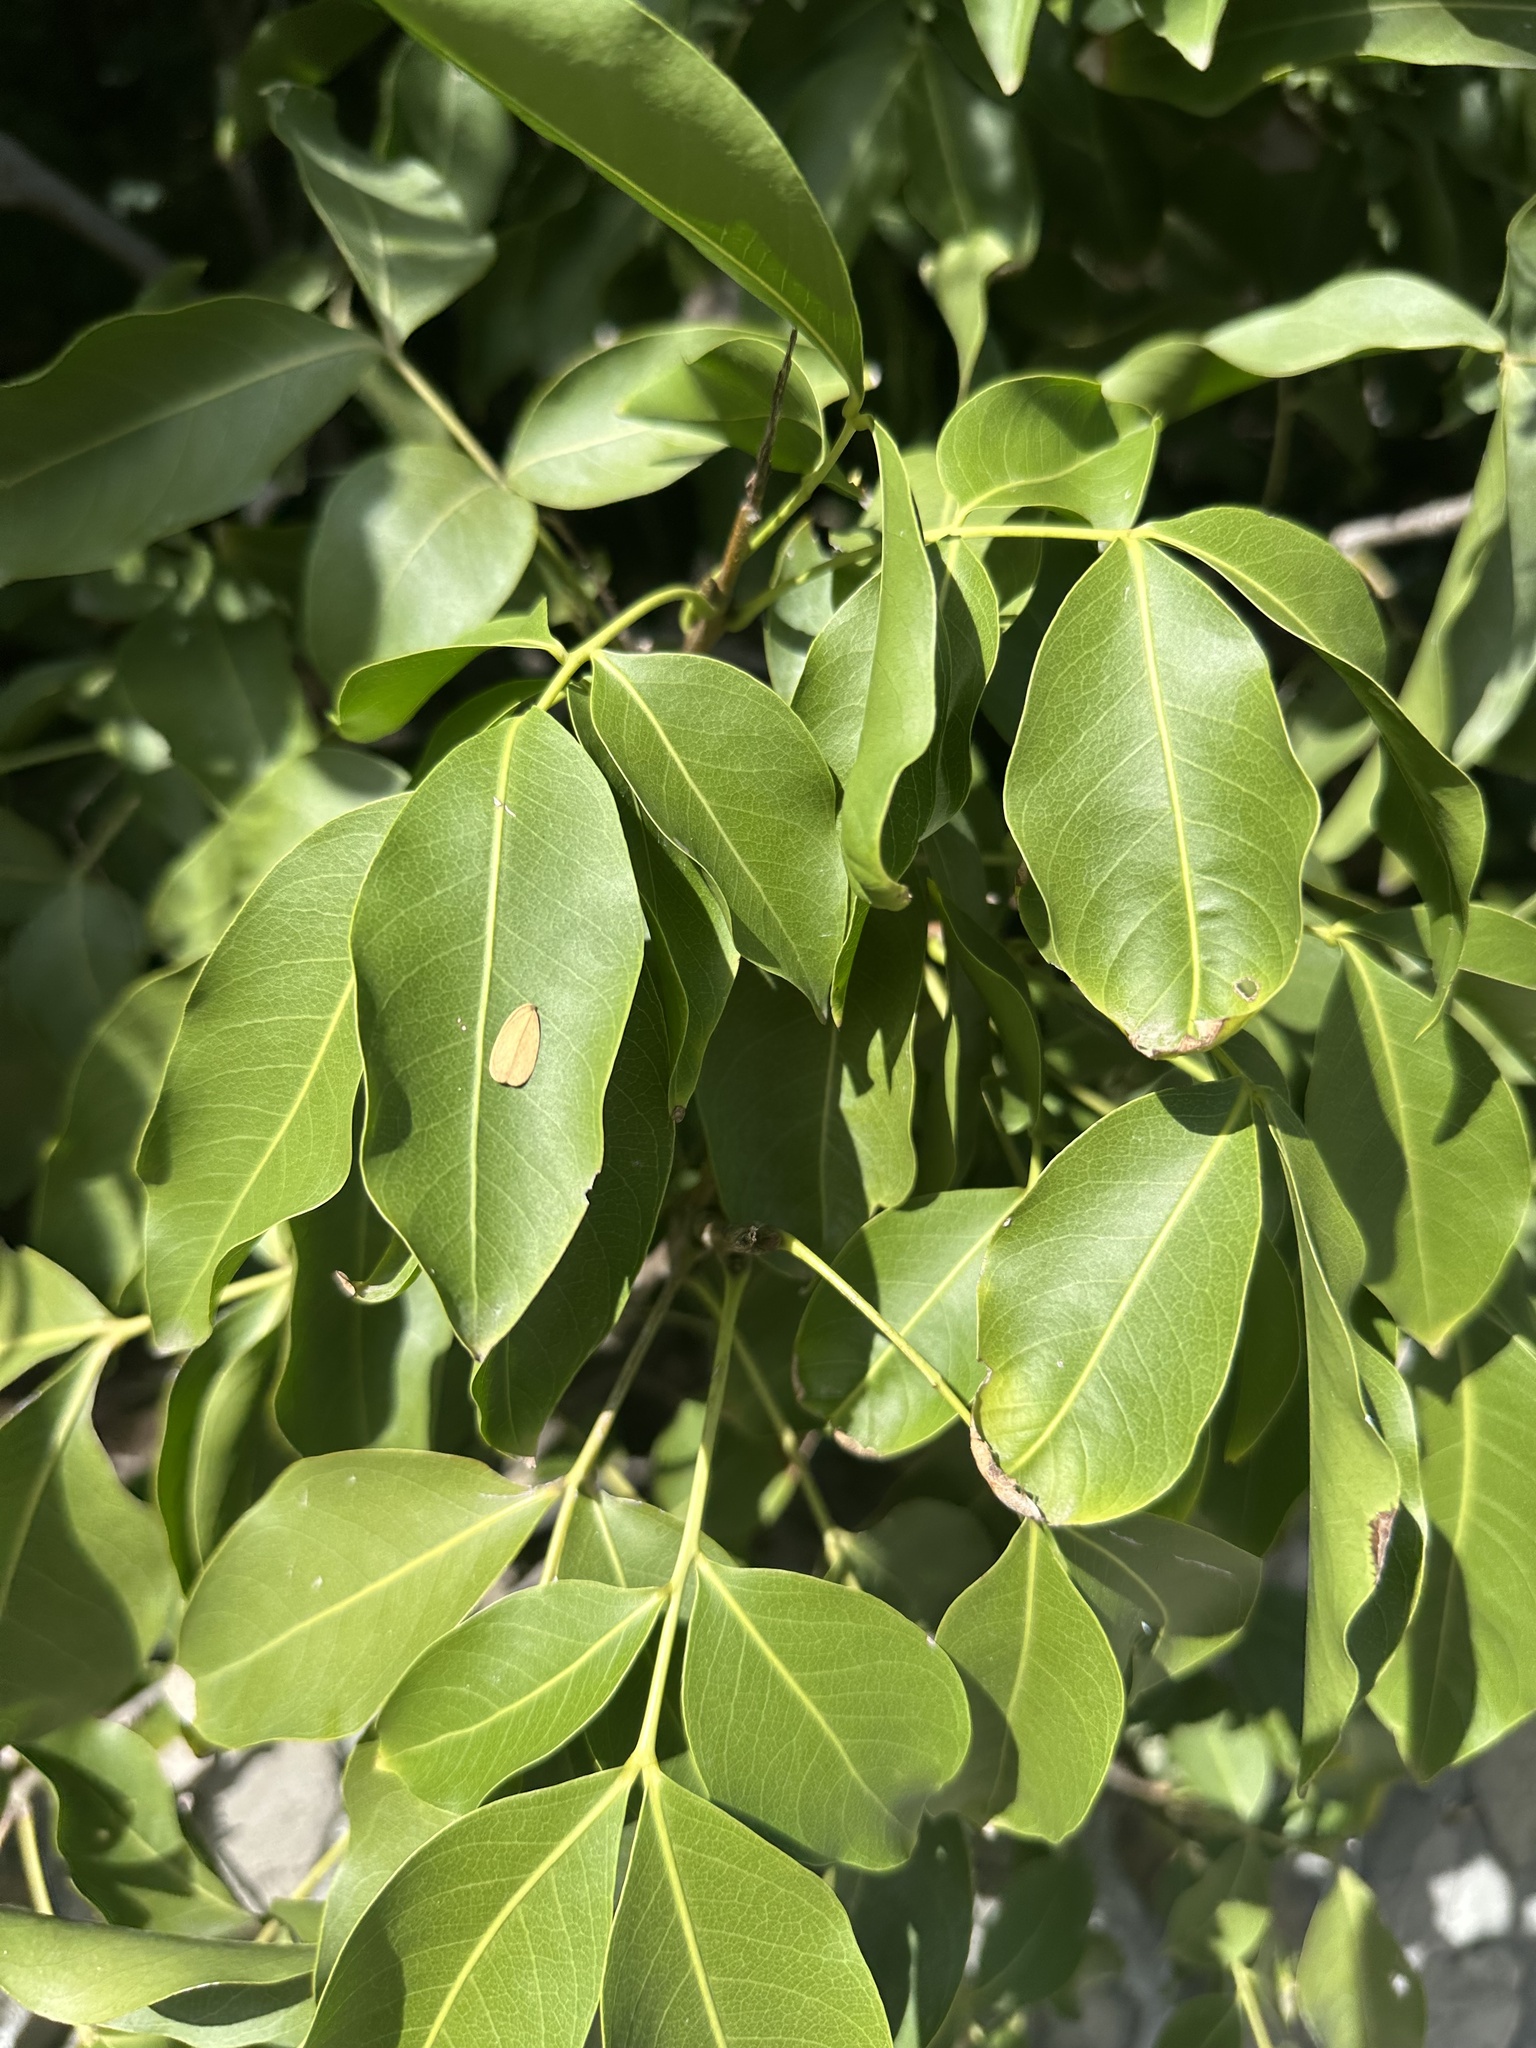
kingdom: Plantae
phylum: Tracheophyta
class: Magnoliopsida
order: Sapindales
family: Sapindaceae
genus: Melicoccus
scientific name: Melicoccus bijugatus
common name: Spanish lime
